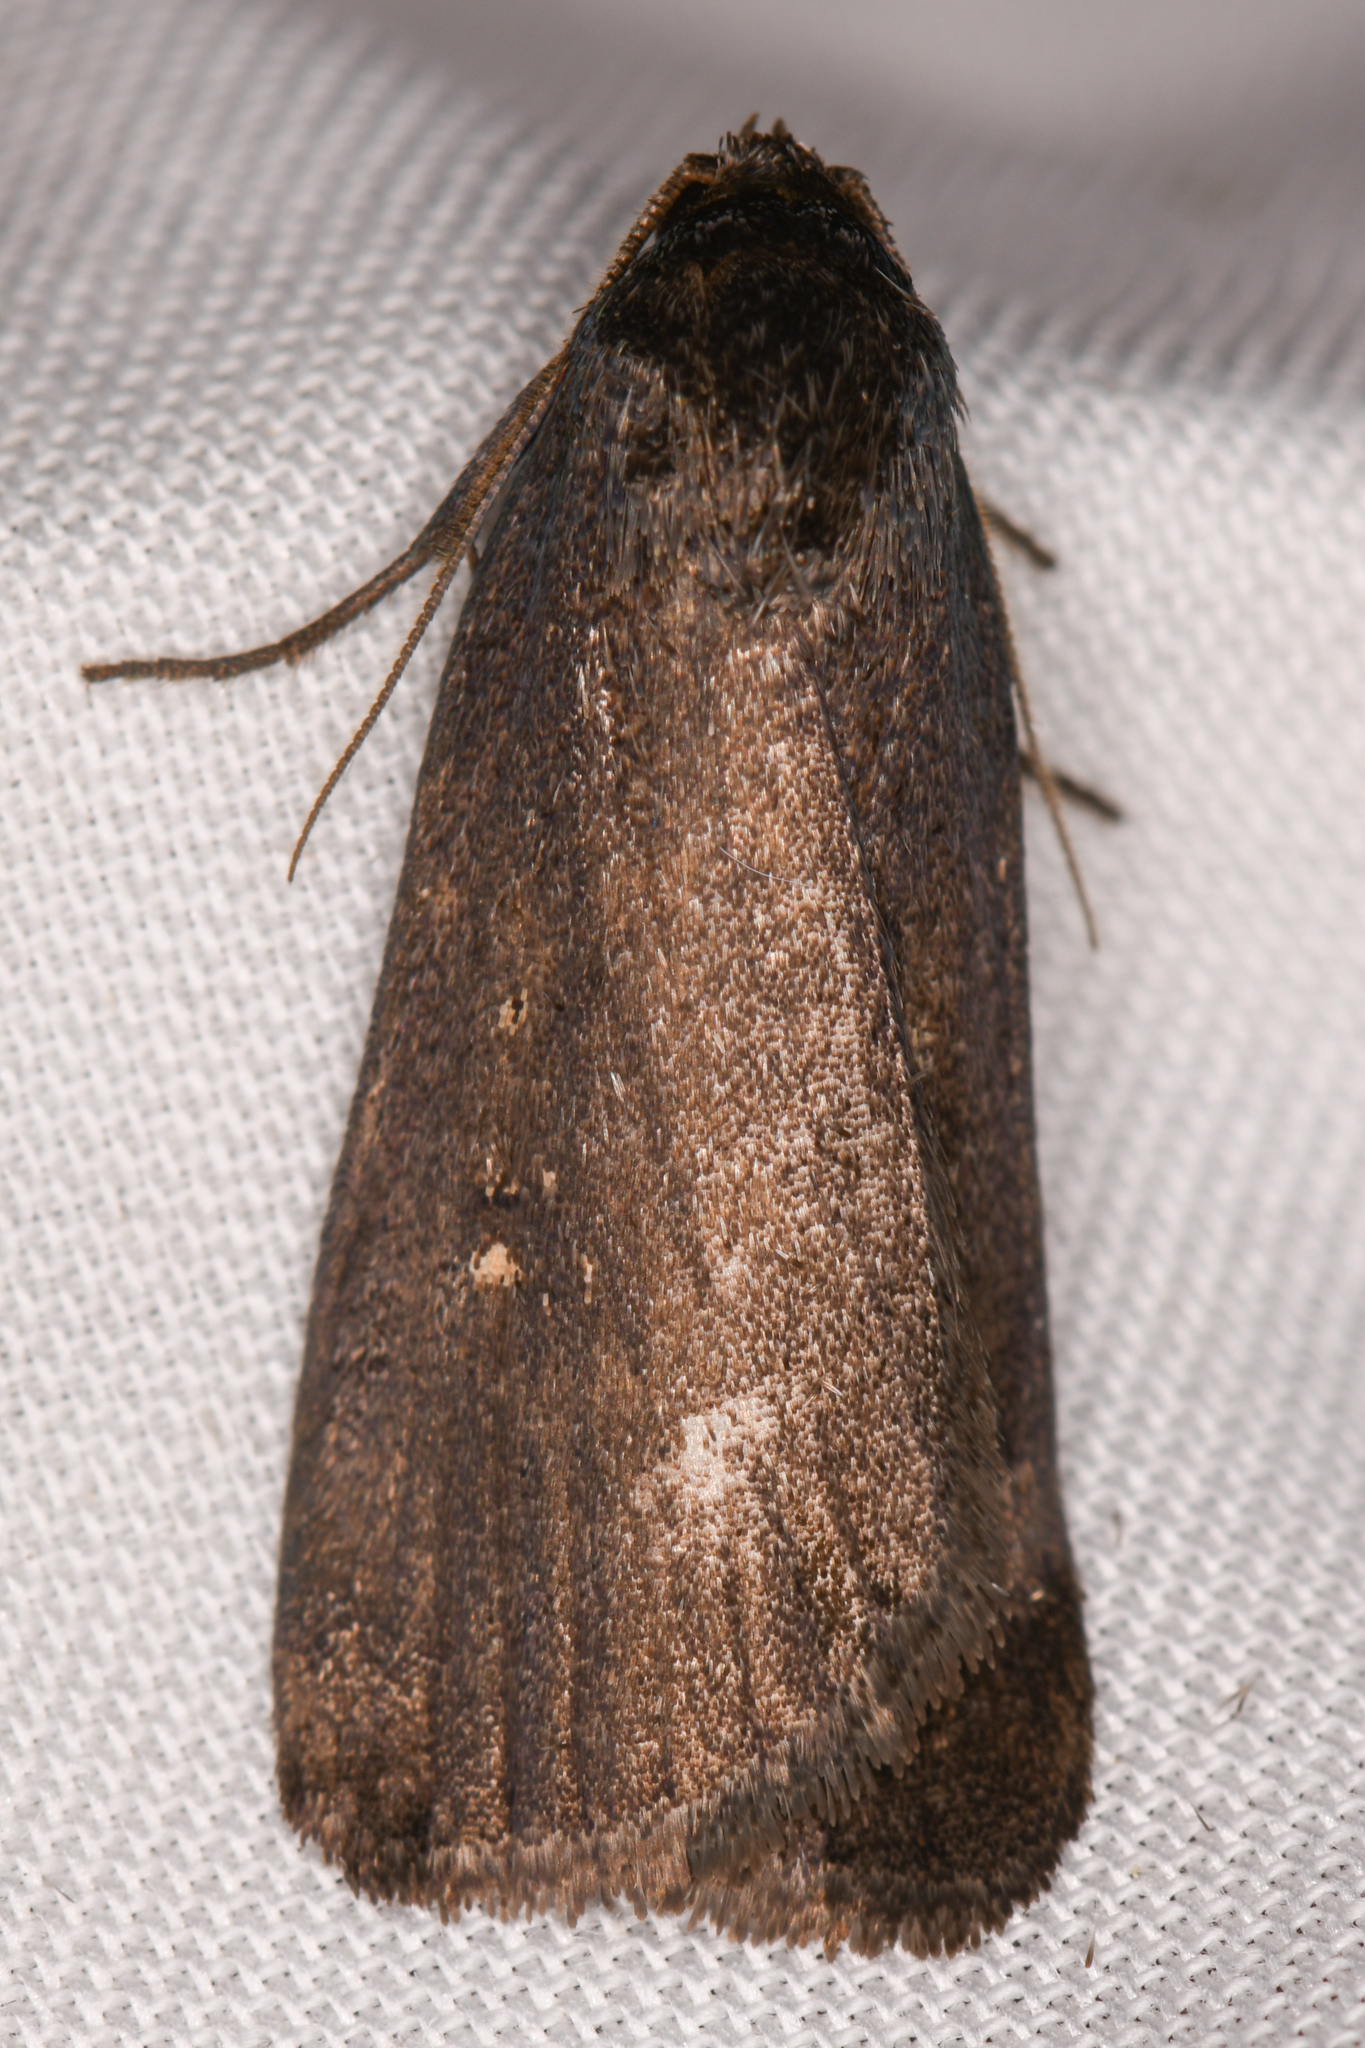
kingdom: Animalia
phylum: Arthropoda
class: Insecta
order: Lepidoptera
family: Noctuidae
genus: Proxenus
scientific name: Proxenus miranda
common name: Miranda moth
